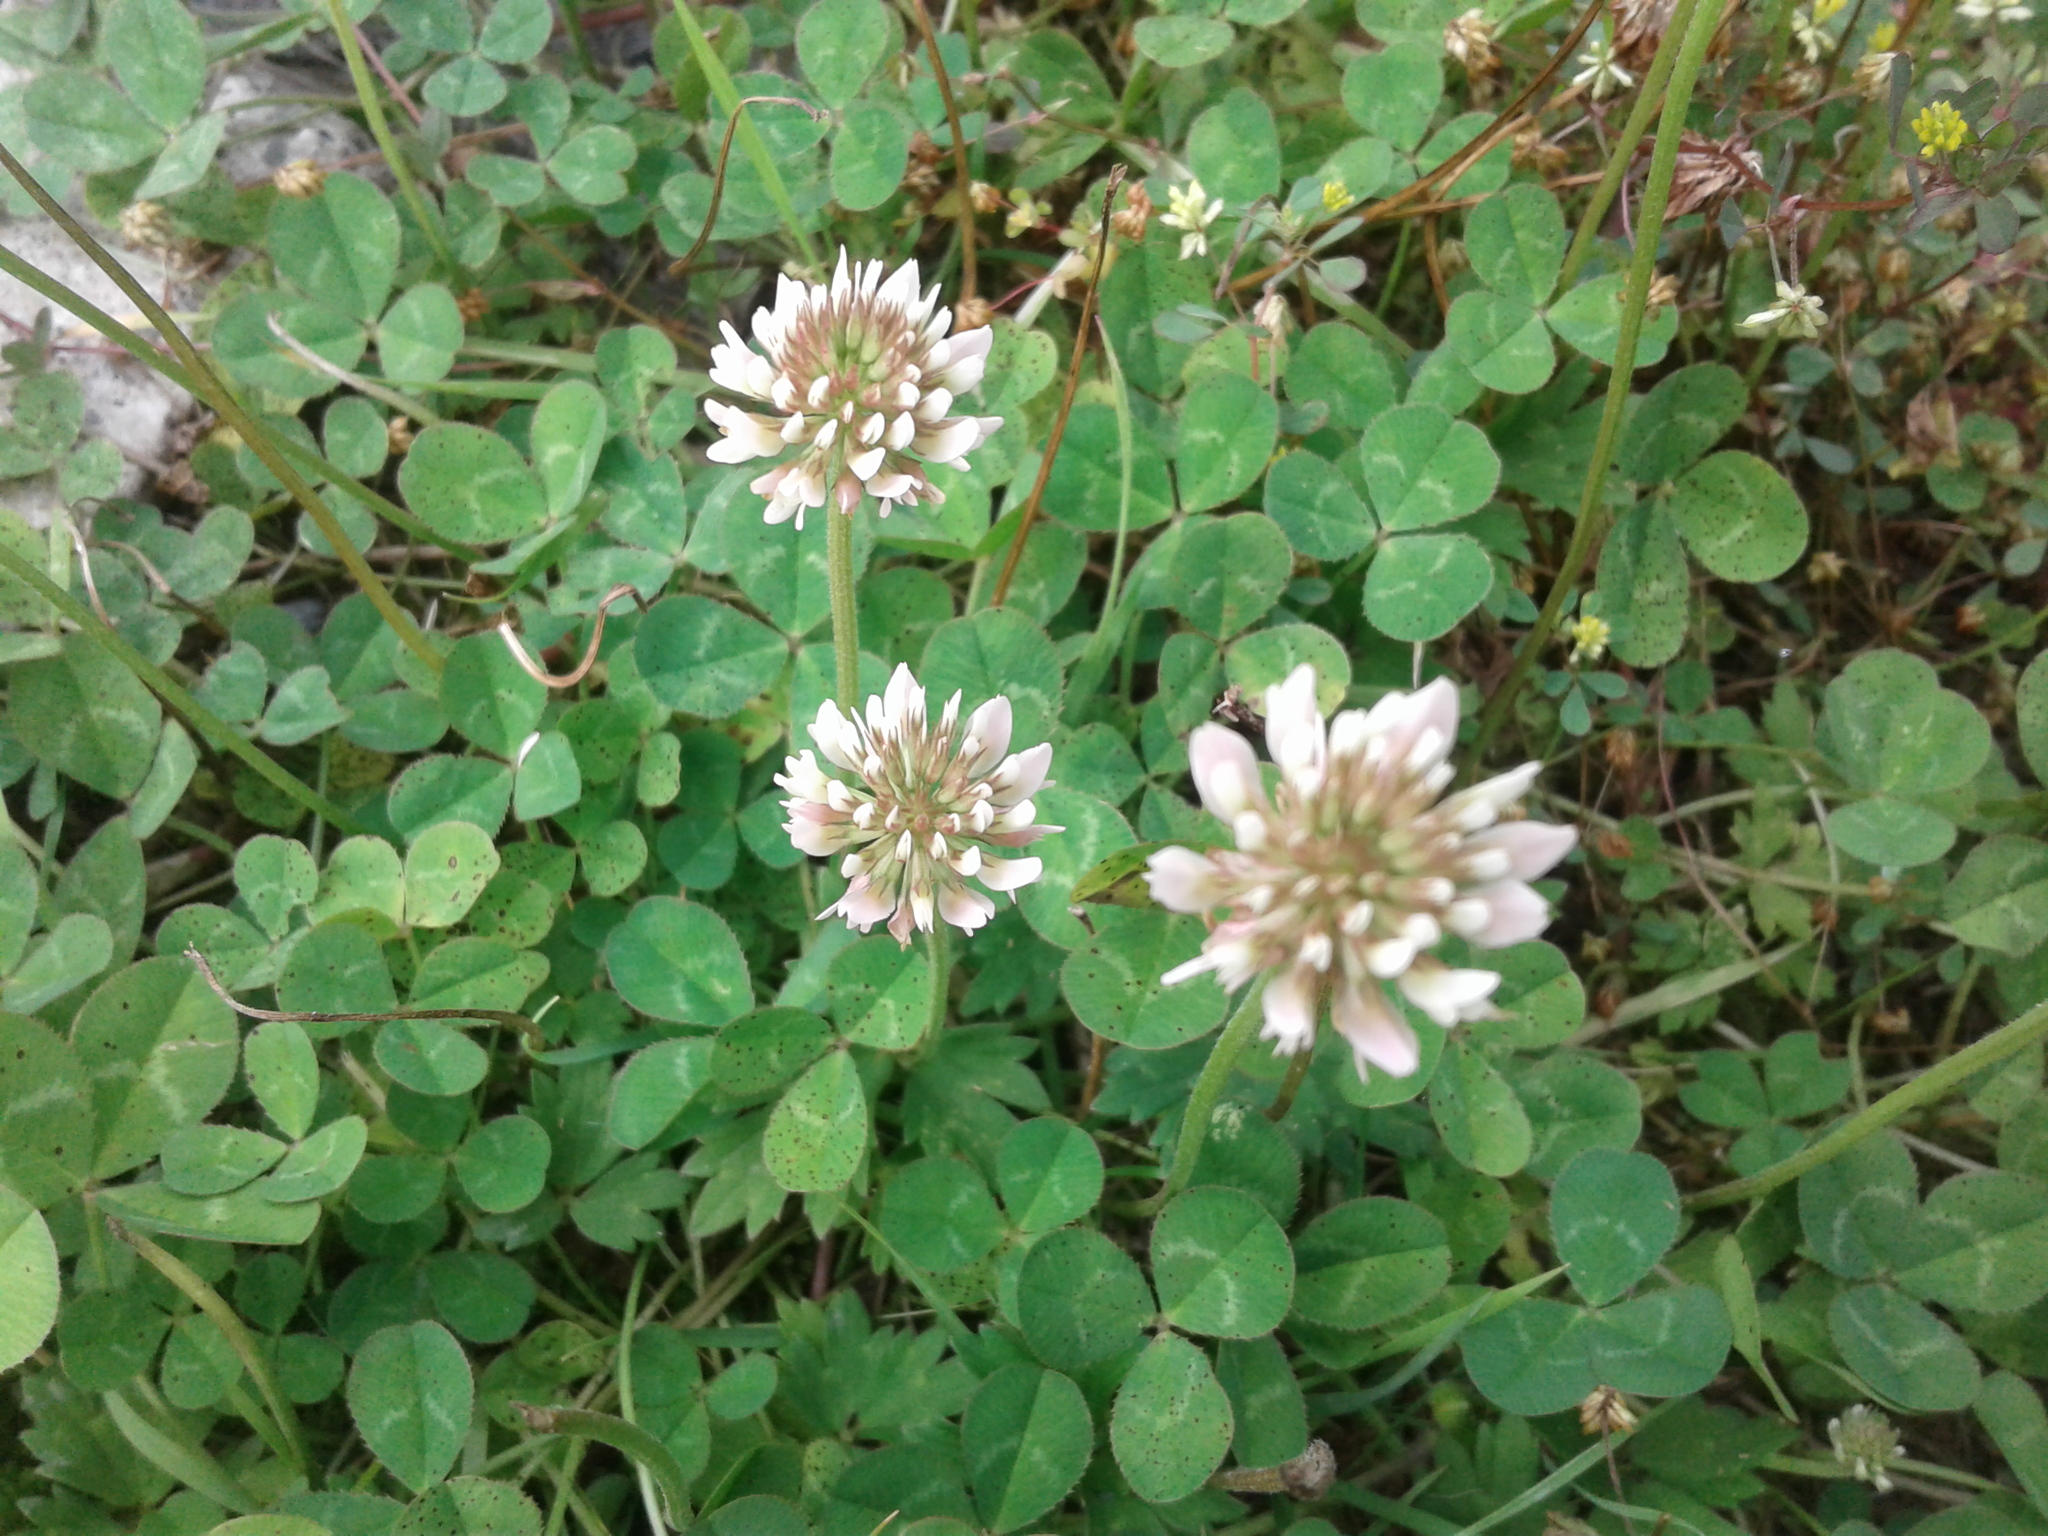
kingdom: Plantae
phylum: Tracheophyta
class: Magnoliopsida
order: Fabales
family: Fabaceae
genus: Trifolium
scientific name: Trifolium repens
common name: White clover
